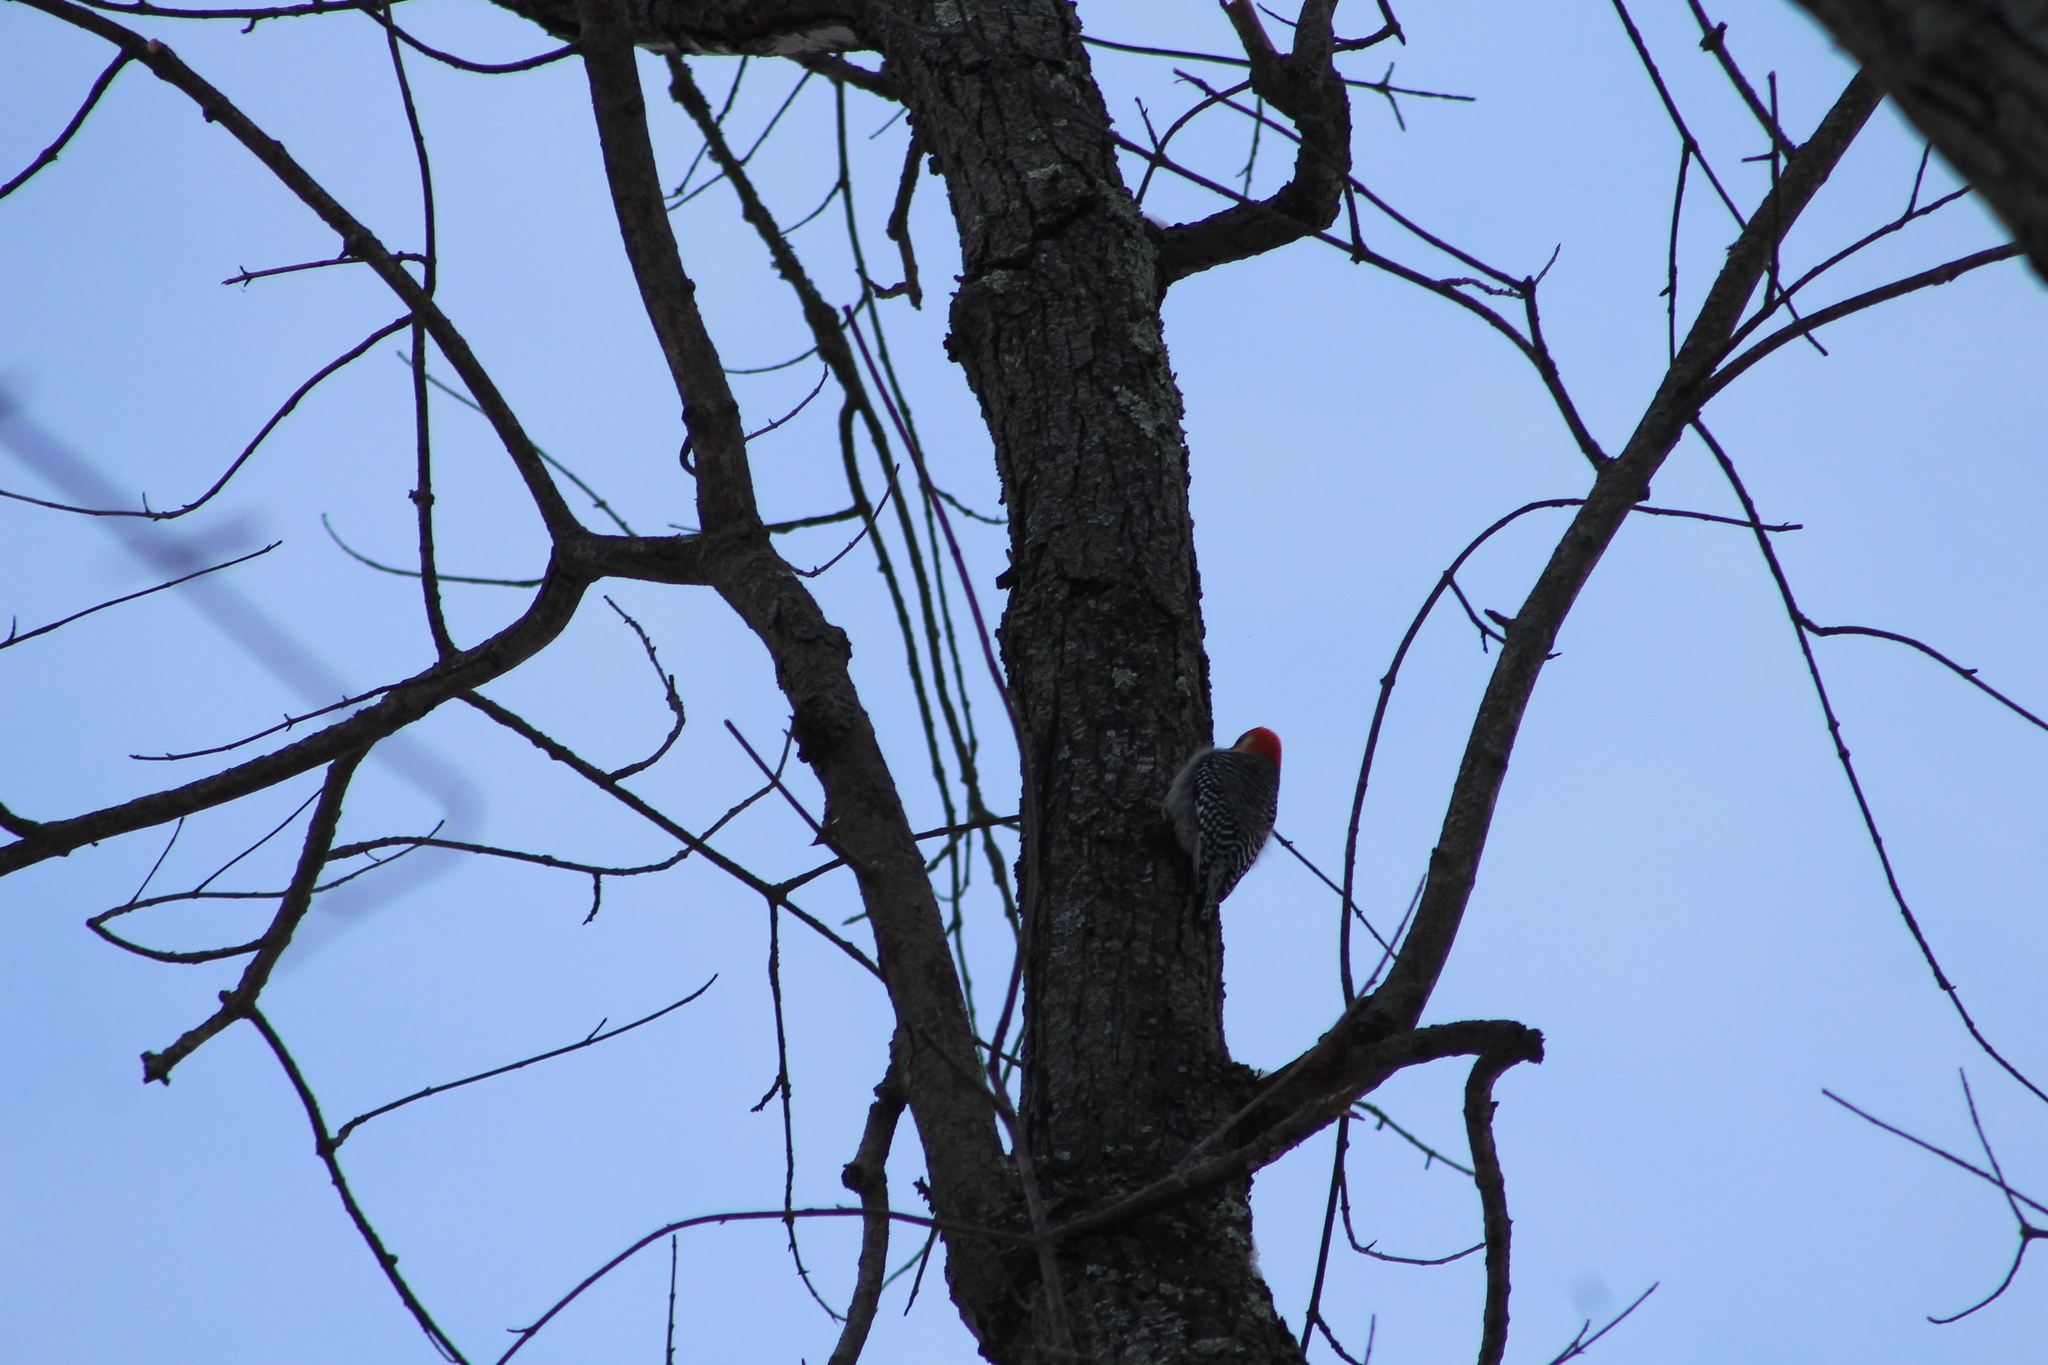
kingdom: Animalia
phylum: Chordata
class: Aves
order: Piciformes
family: Picidae
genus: Melanerpes
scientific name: Melanerpes carolinus
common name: Red-bellied woodpecker
